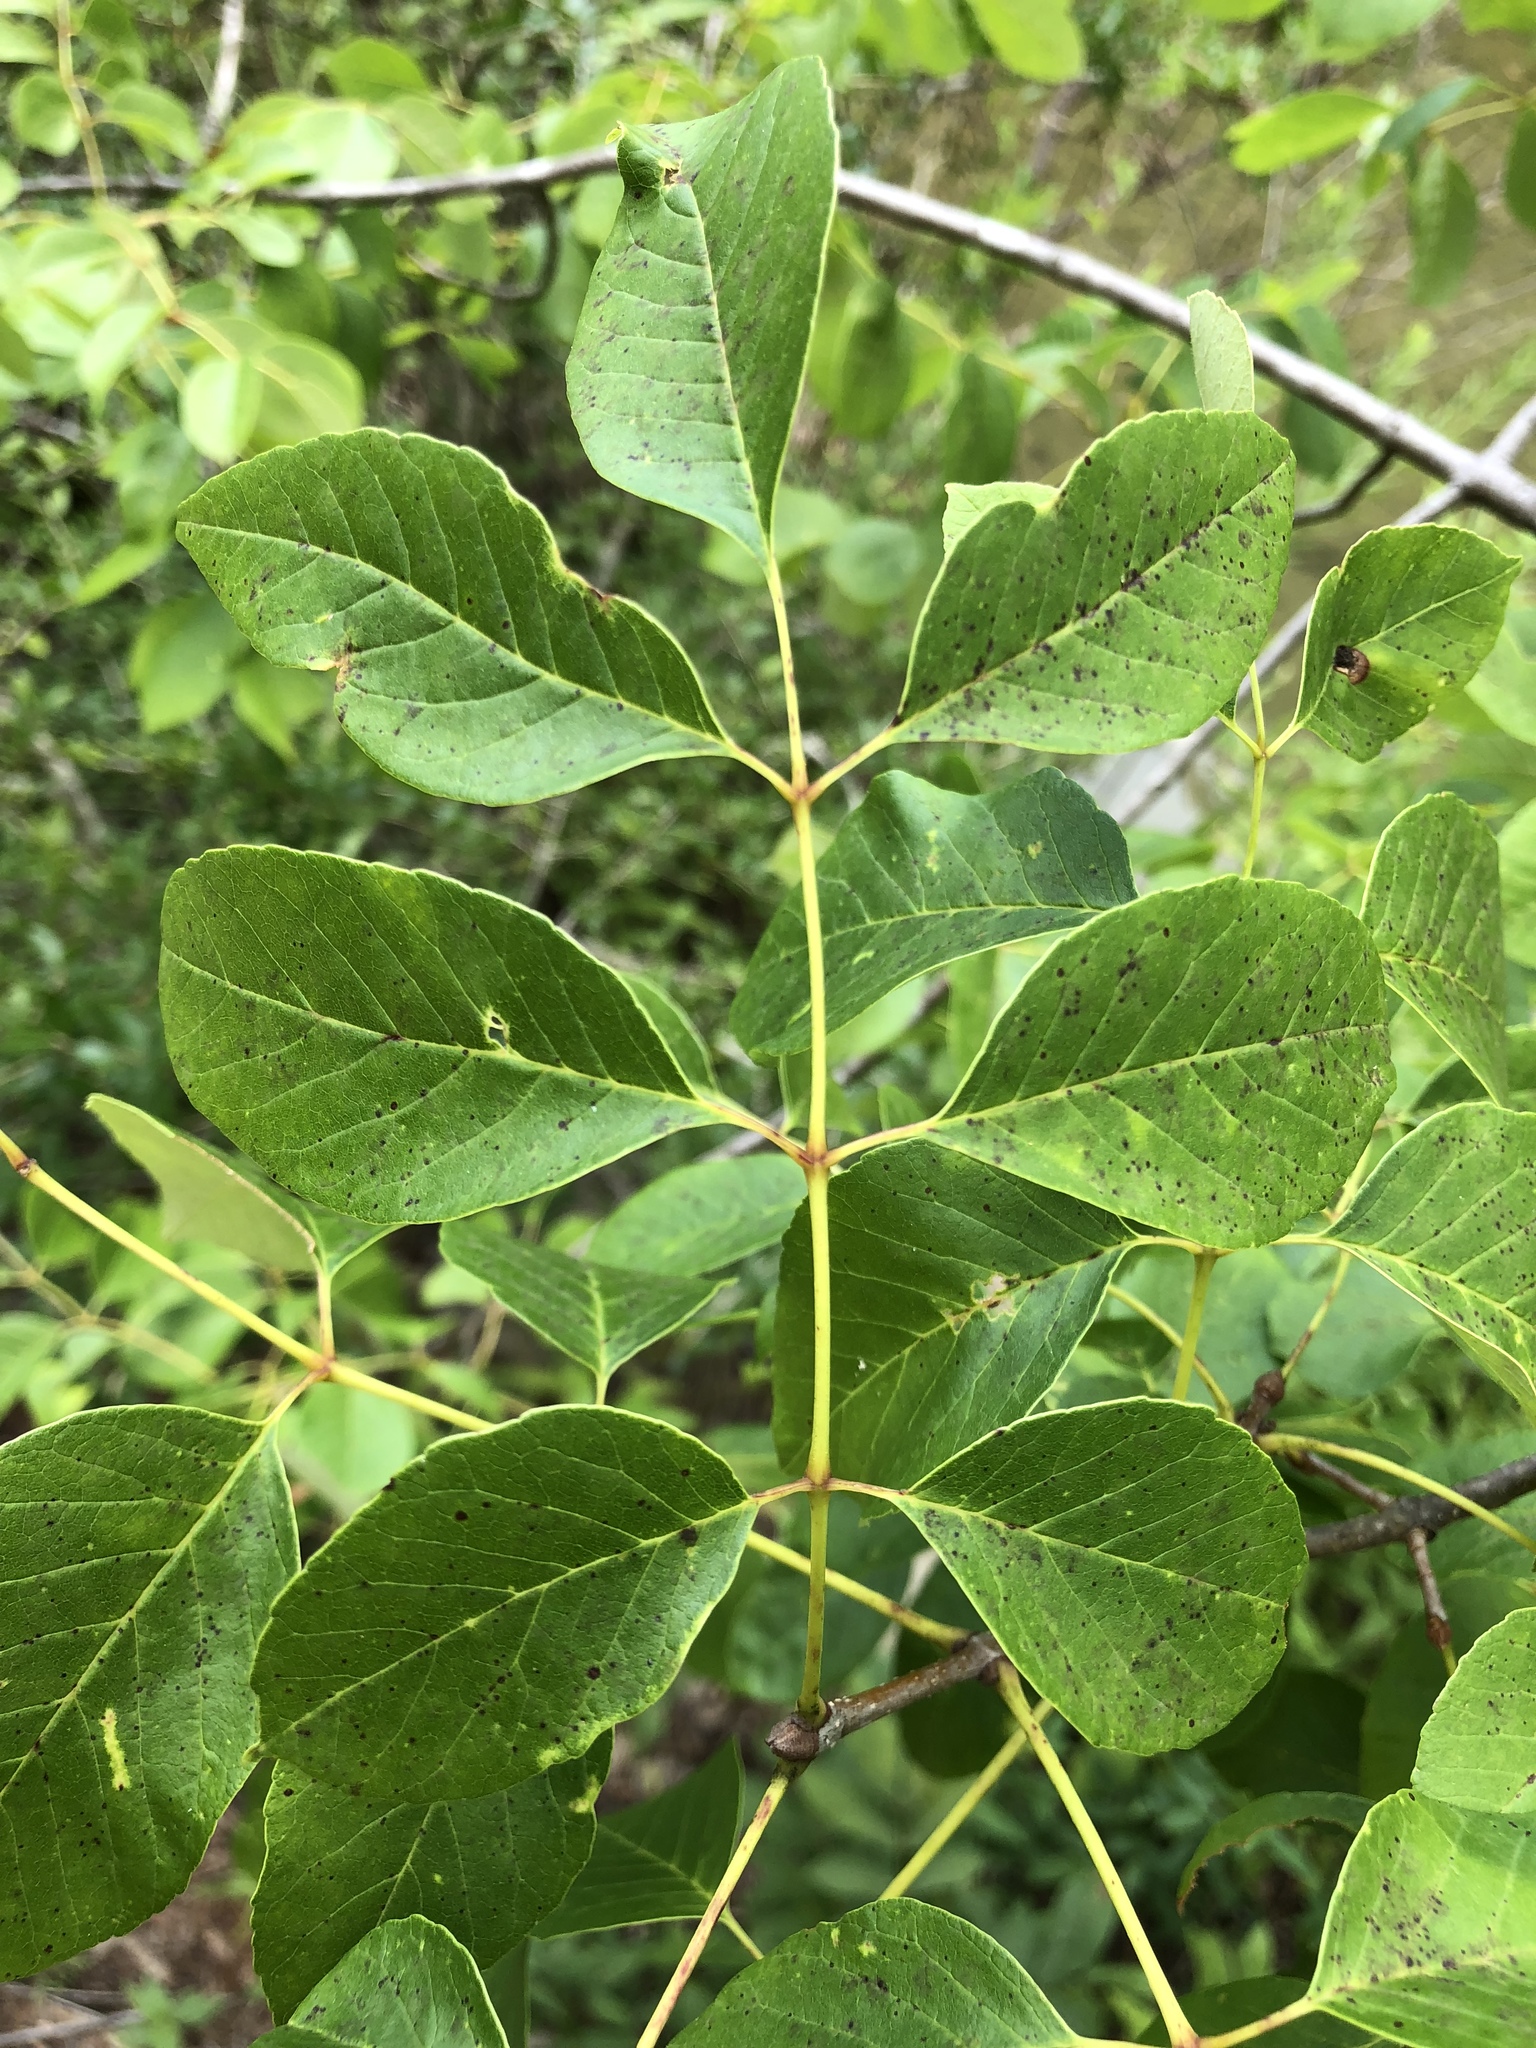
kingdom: Plantae
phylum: Tracheophyta
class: Magnoliopsida
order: Lamiales
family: Oleaceae
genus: Fraxinus
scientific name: Fraxinus albicans
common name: Texas ash
